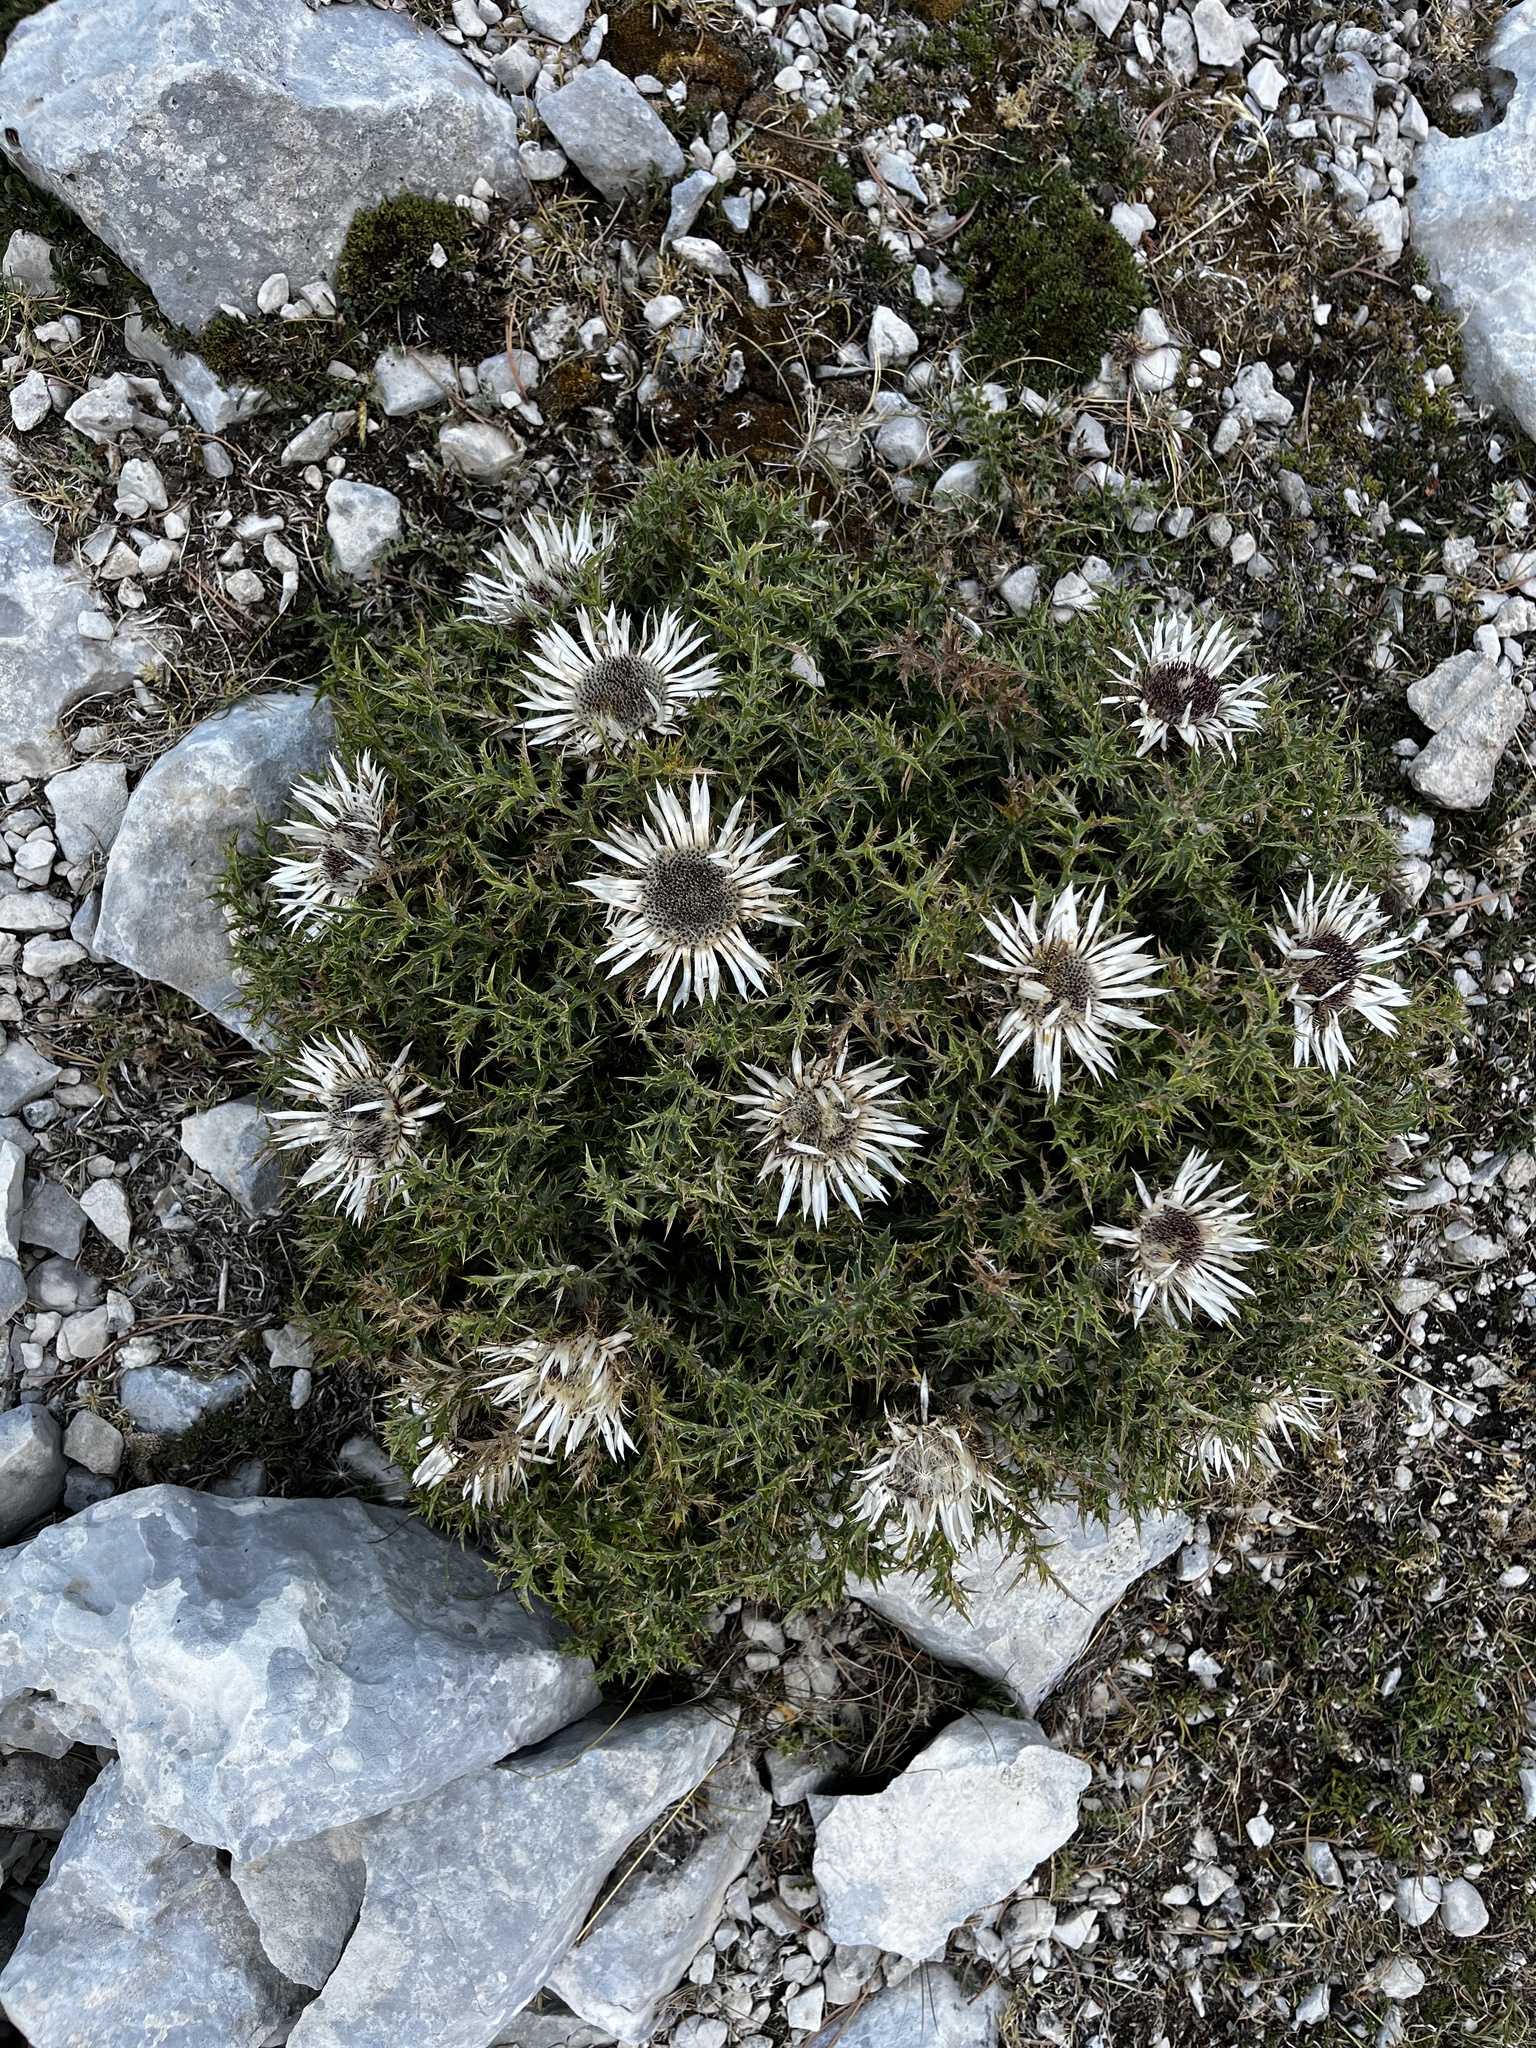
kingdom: Plantae
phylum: Tracheophyta
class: Magnoliopsida
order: Asterales
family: Asteraceae
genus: Carlina
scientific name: Carlina acaulis
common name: Stemless carline thistle
